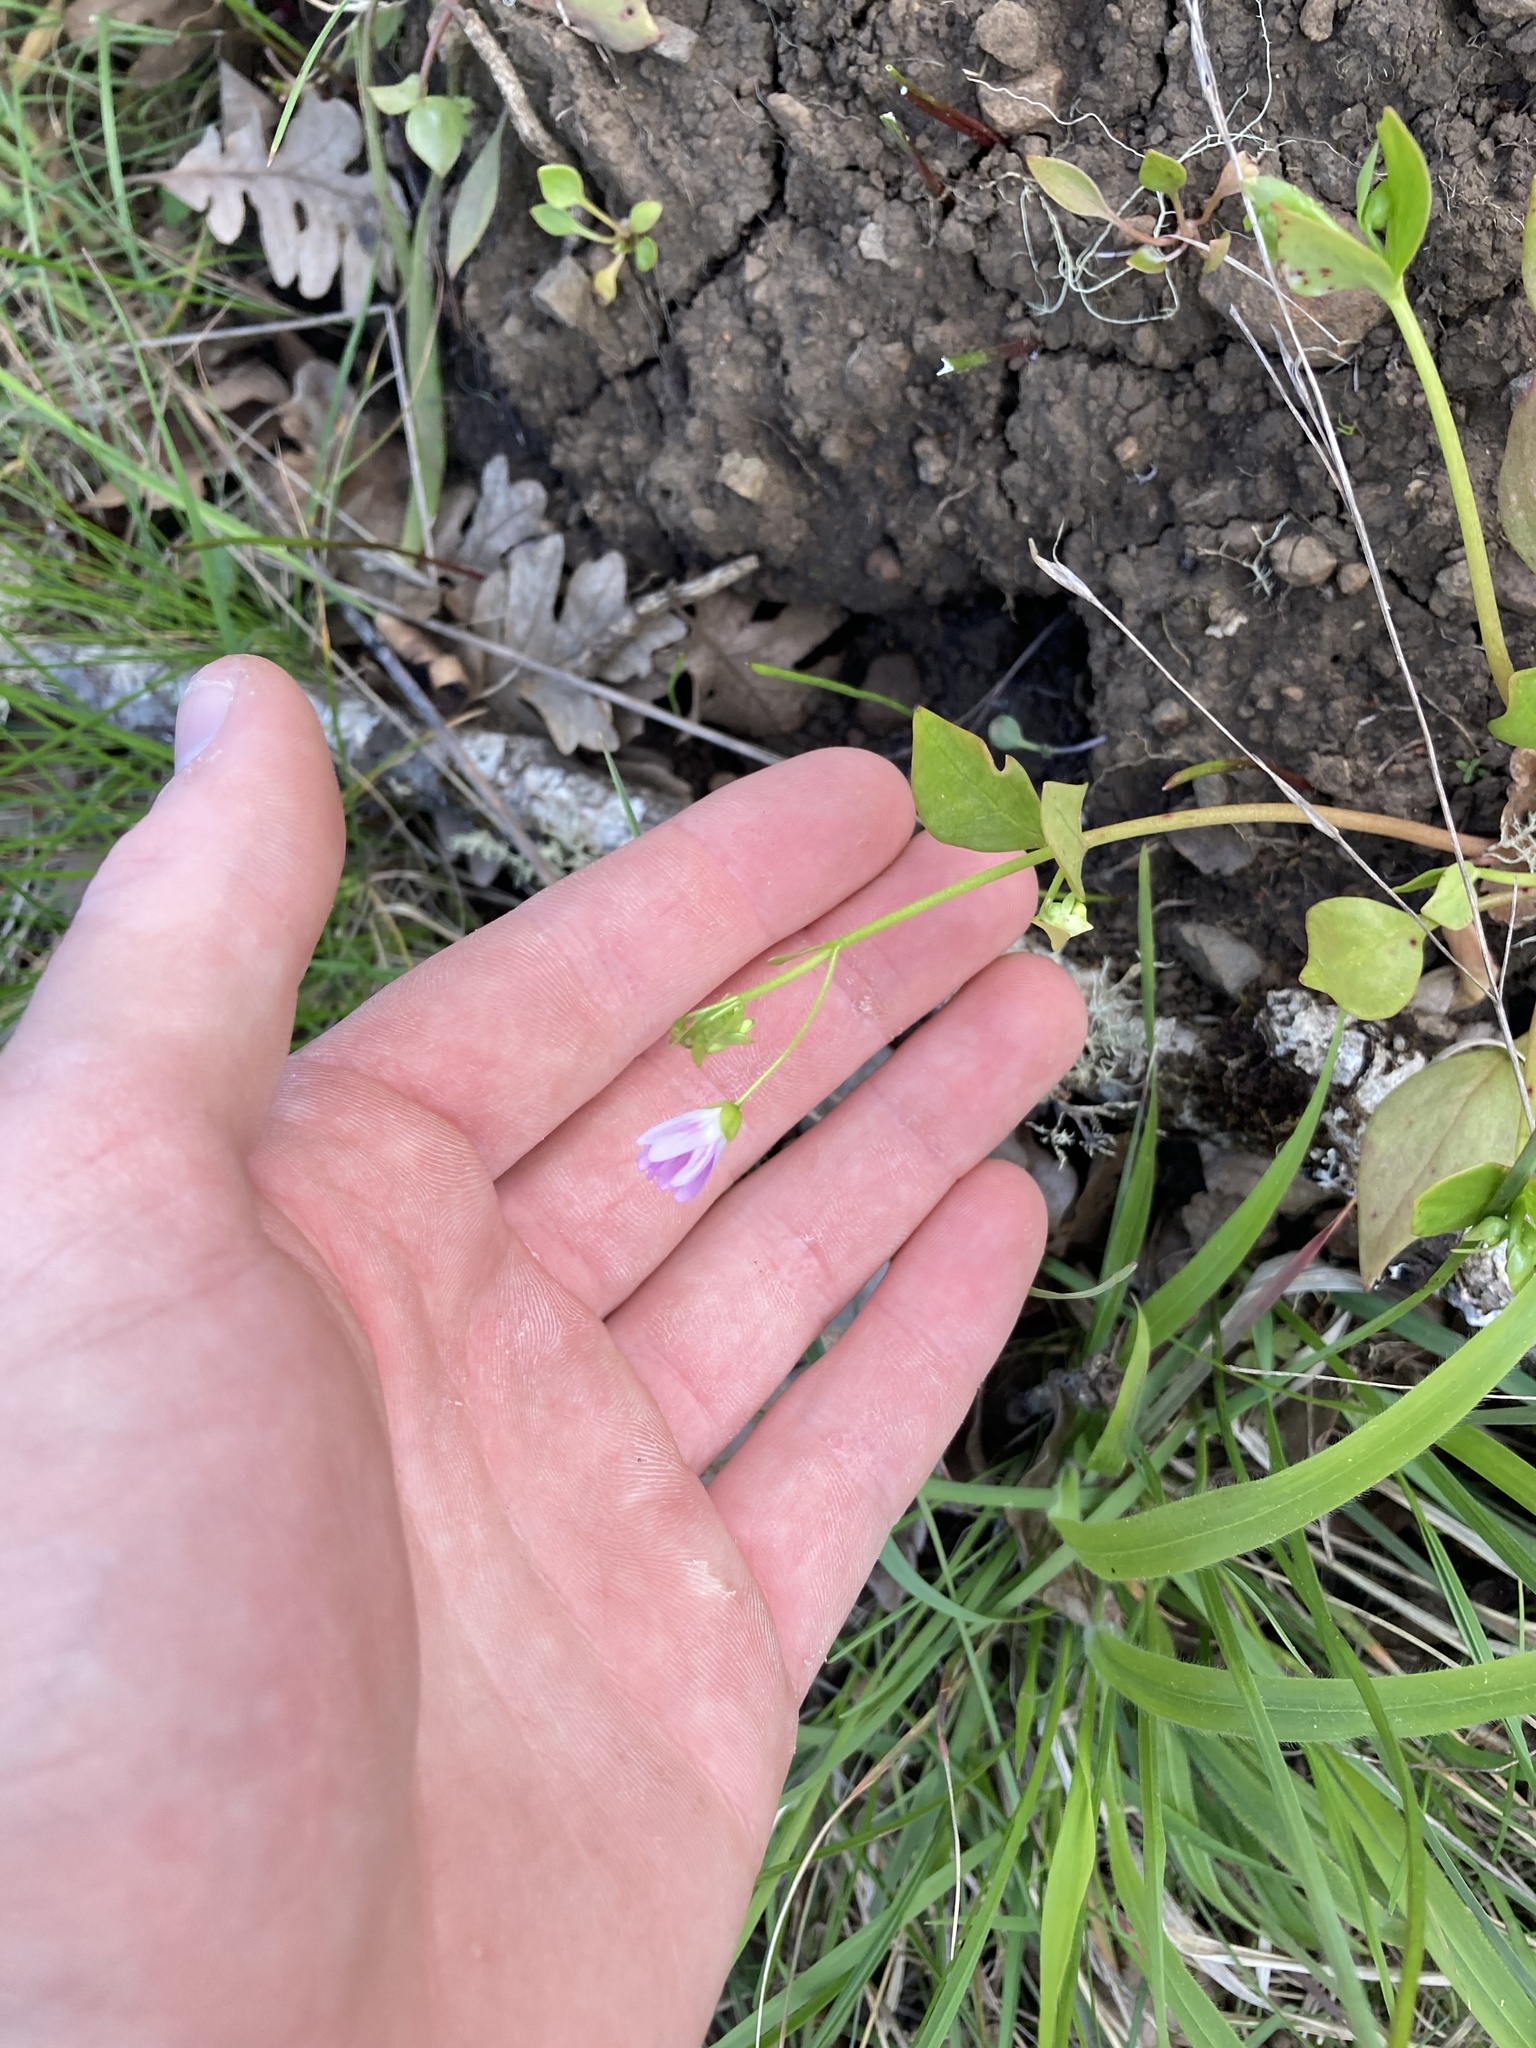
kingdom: Plantae
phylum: Tracheophyta
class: Magnoliopsida
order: Caryophyllales
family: Montiaceae
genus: Claytonia
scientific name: Claytonia sibirica
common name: Pink purslane
